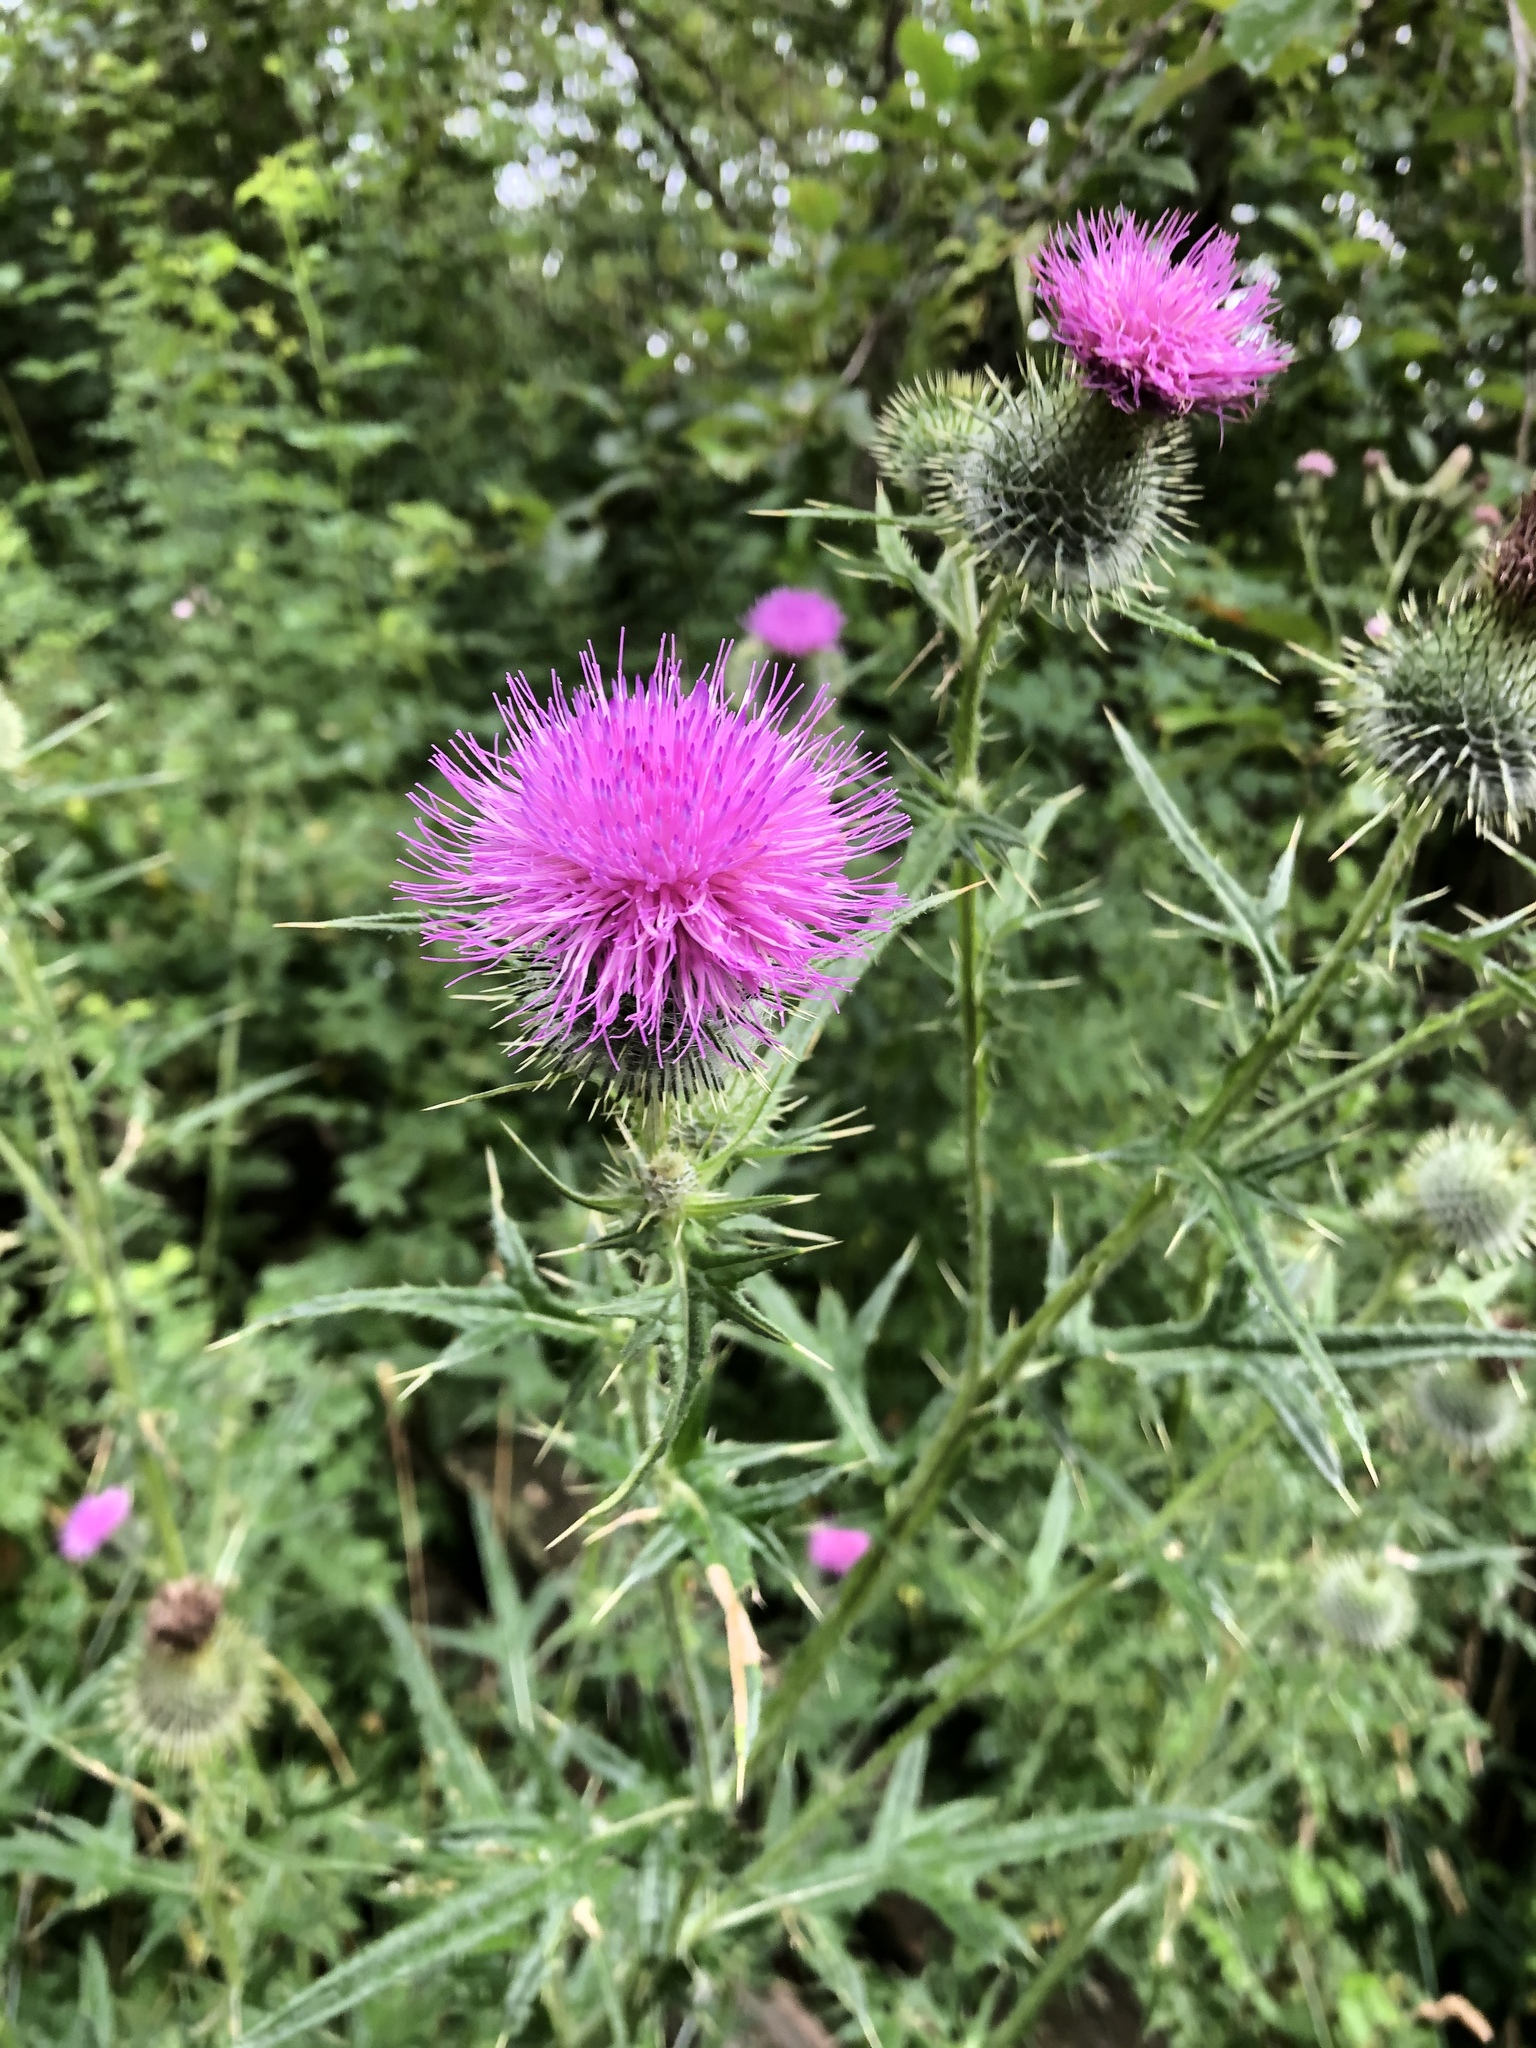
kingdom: Plantae
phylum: Tracheophyta
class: Magnoliopsida
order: Asterales
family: Asteraceae
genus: Cirsium
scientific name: Cirsium vulgare
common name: Bull thistle
